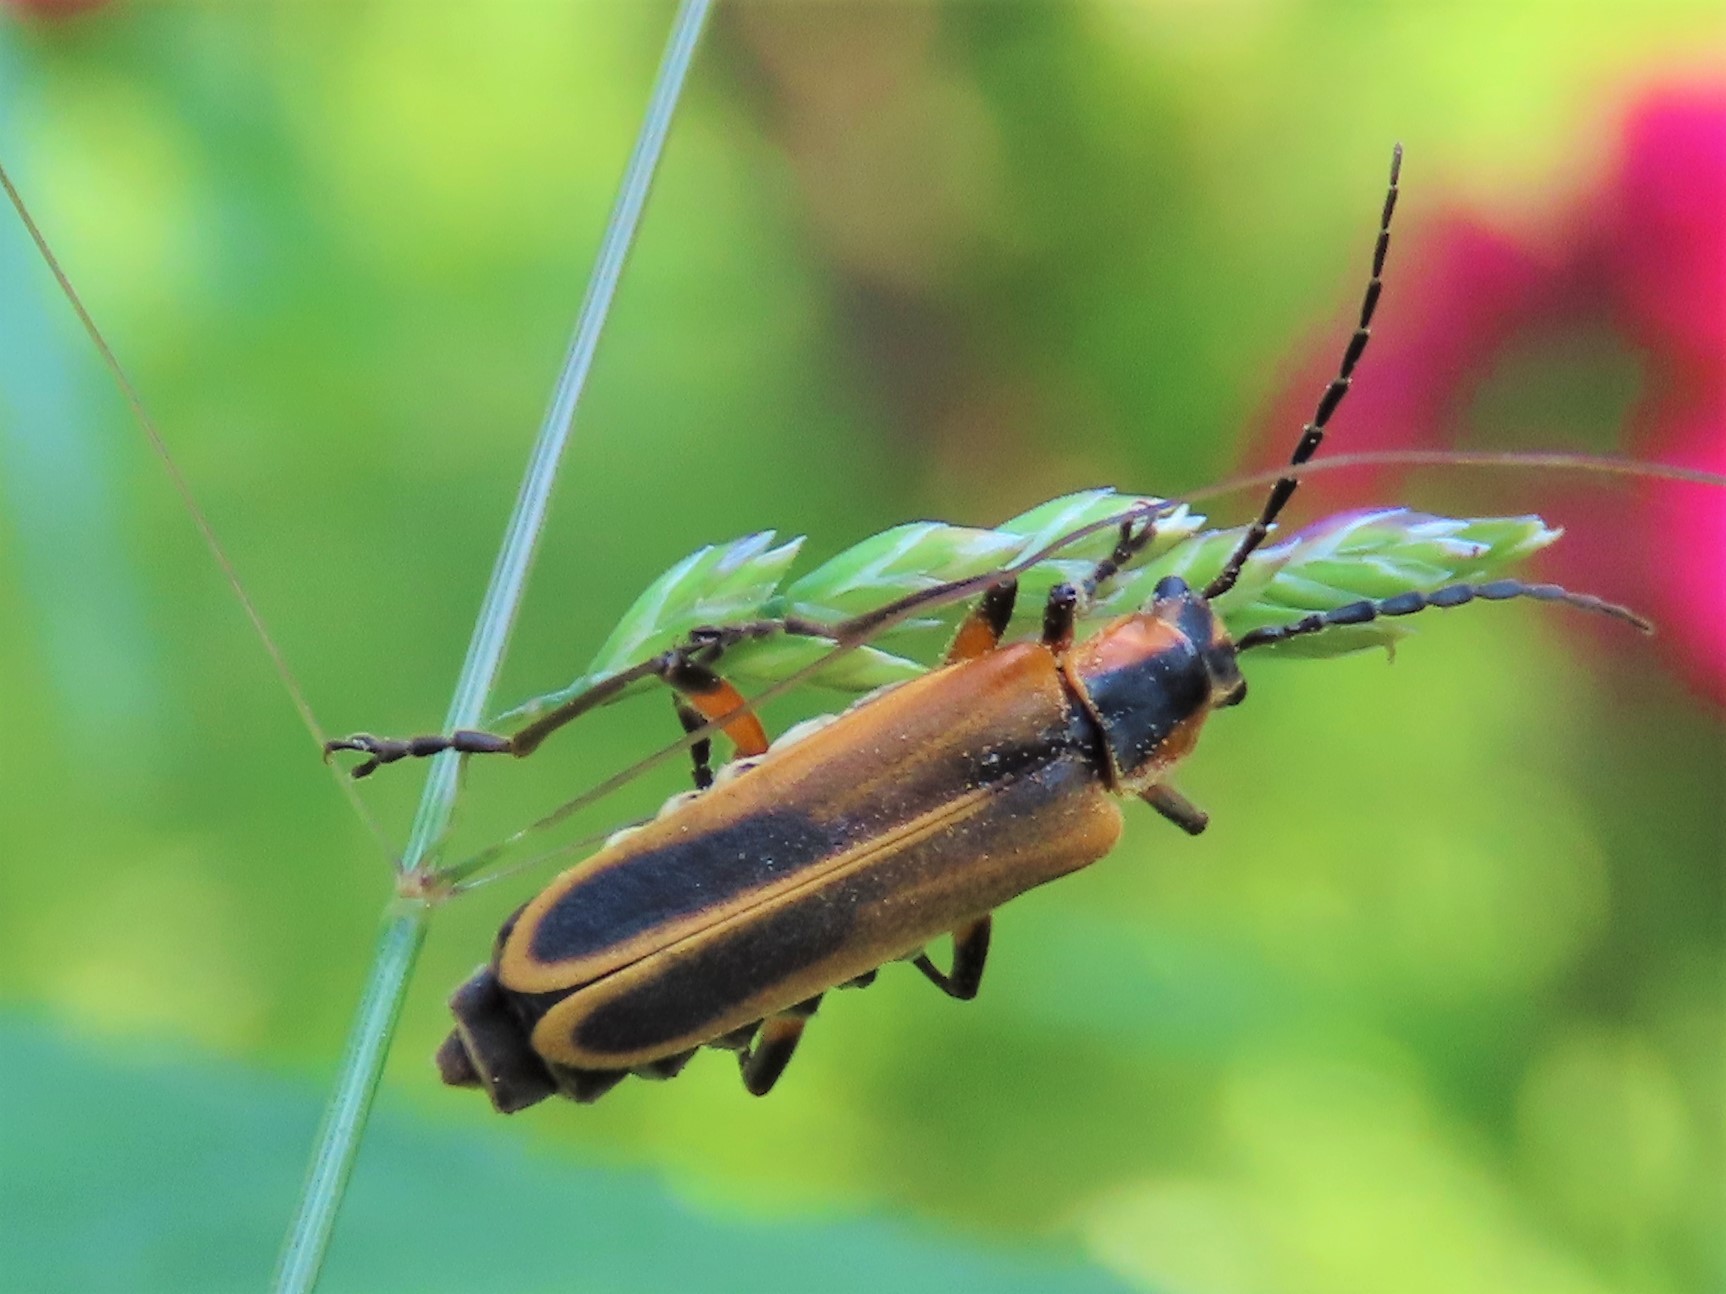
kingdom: Animalia
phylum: Arthropoda
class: Insecta
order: Coleoptera
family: Cantharidae
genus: Chauliognathus
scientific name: Chauliognathus marginatus
